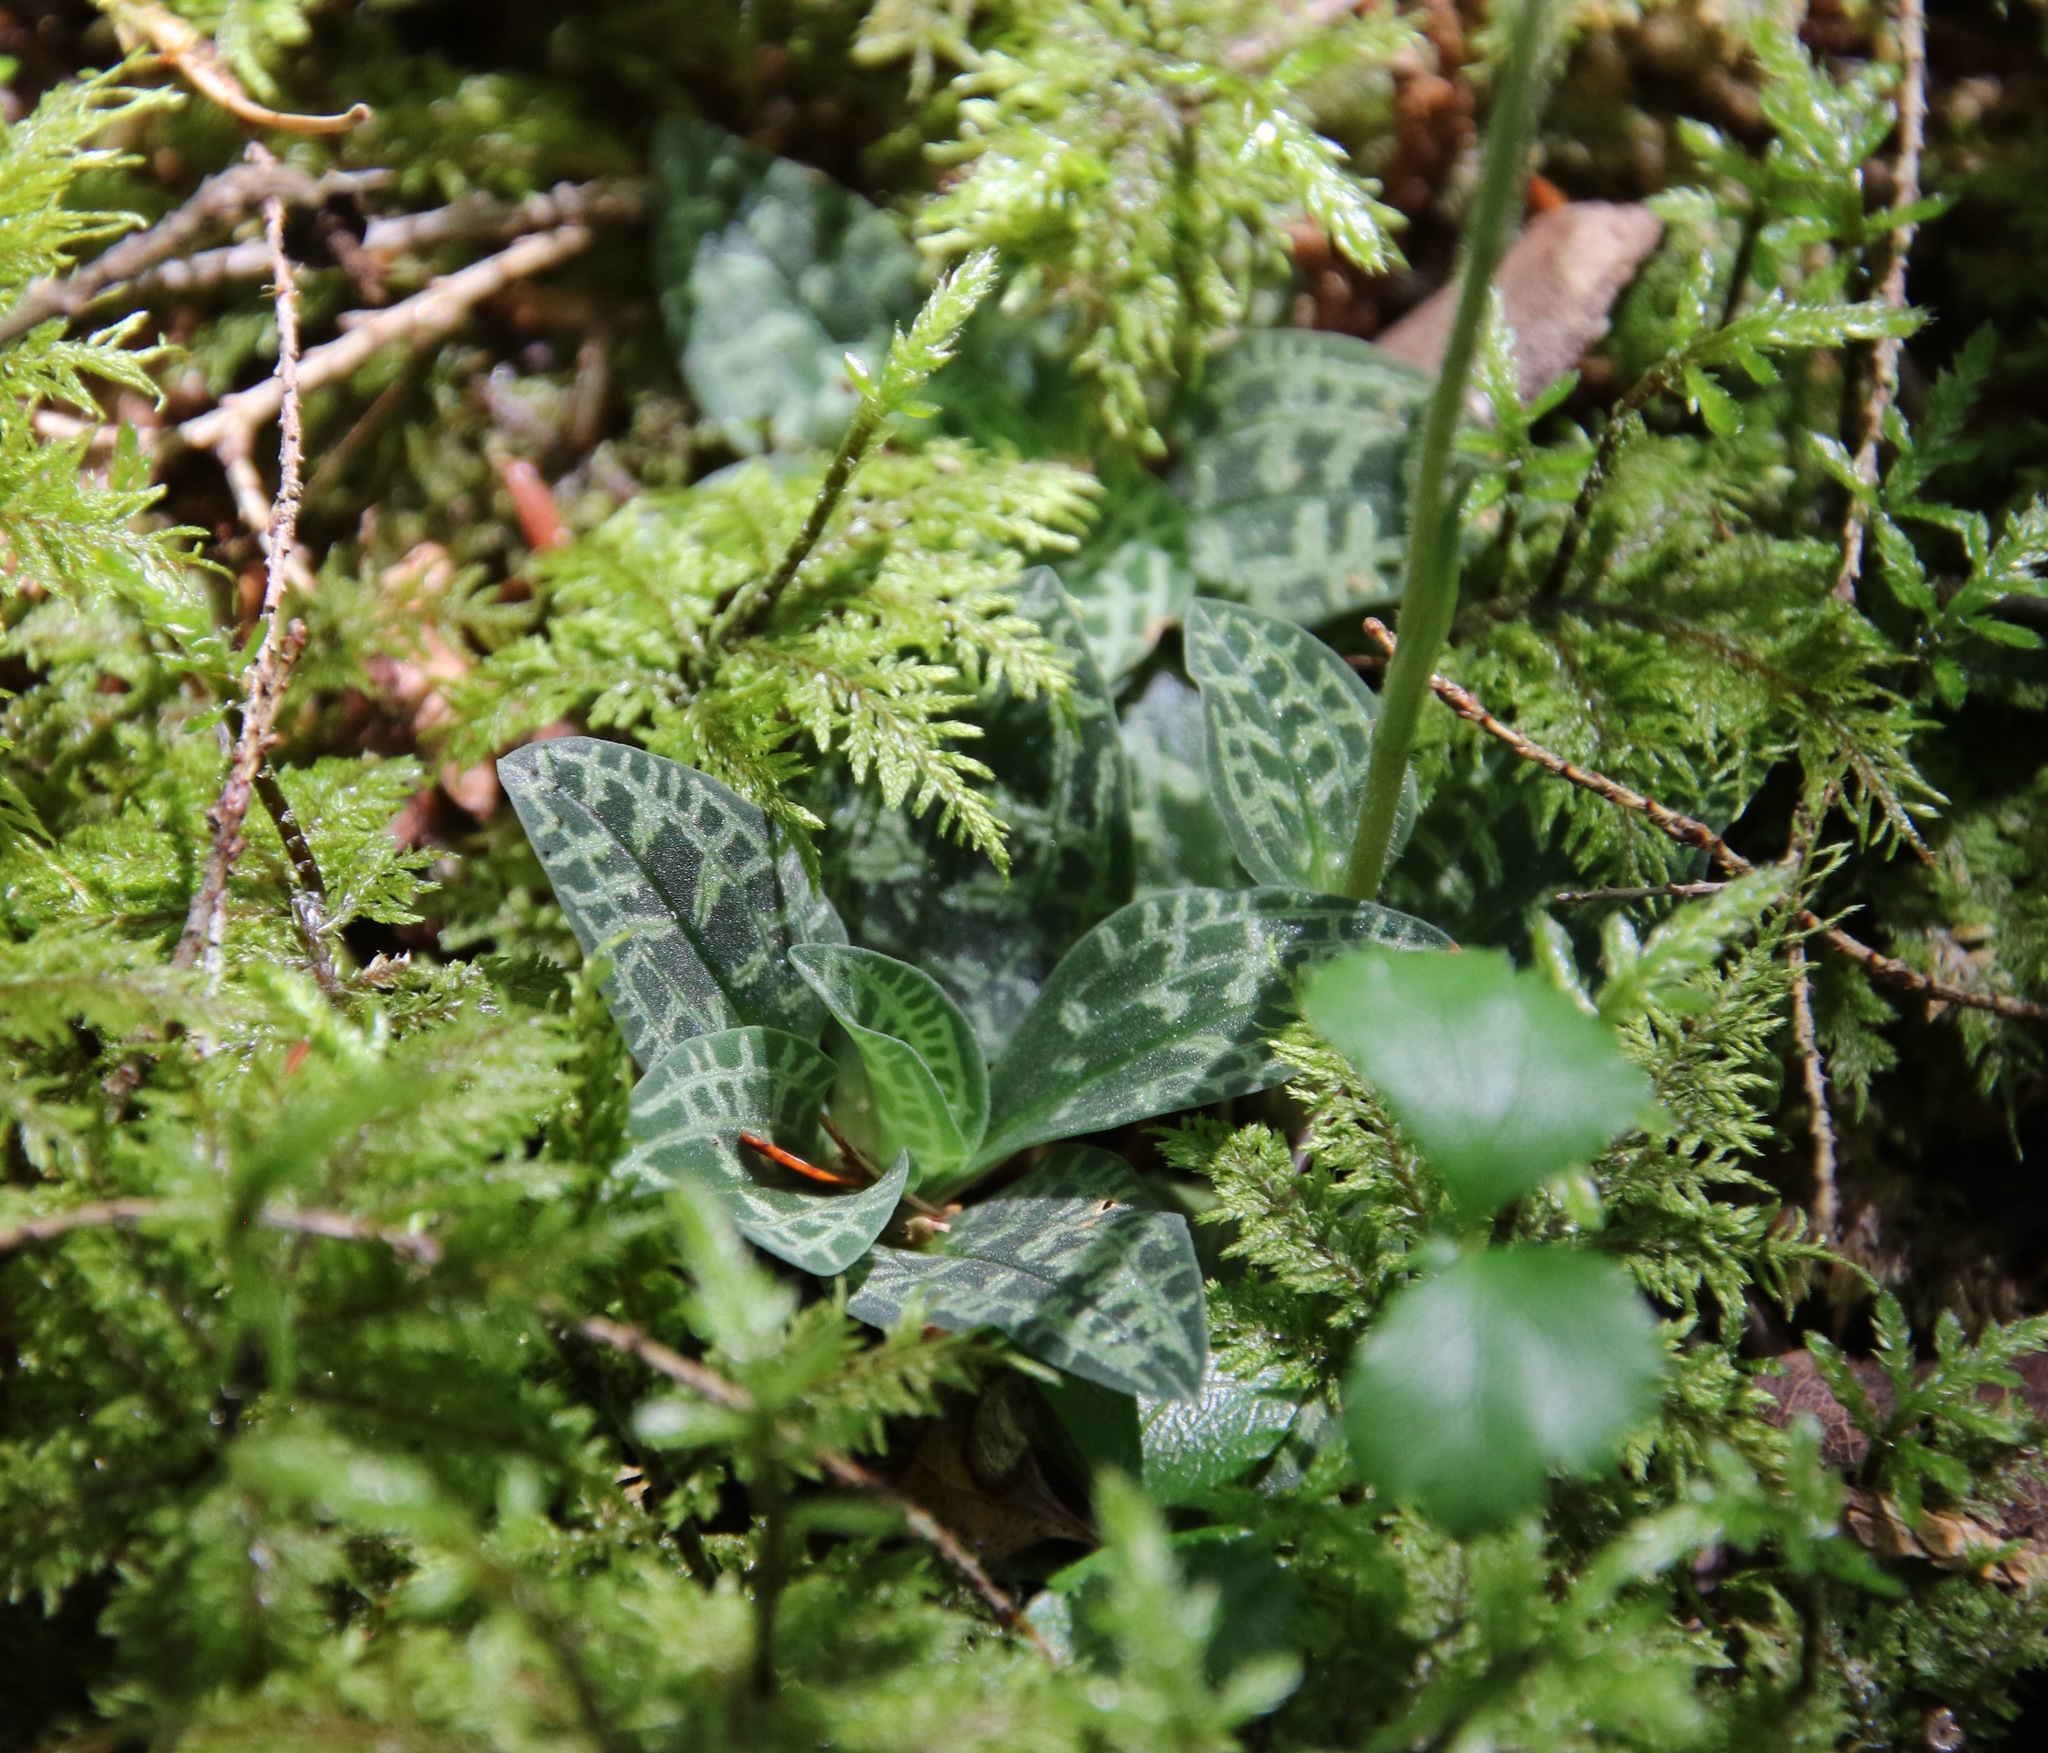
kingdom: Plantae
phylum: Tracheophyta
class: Liliopsida
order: Asparagales
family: Orchidaceae
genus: Goodyera
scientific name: Goodyera repens
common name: Creeping lady's-tresses
